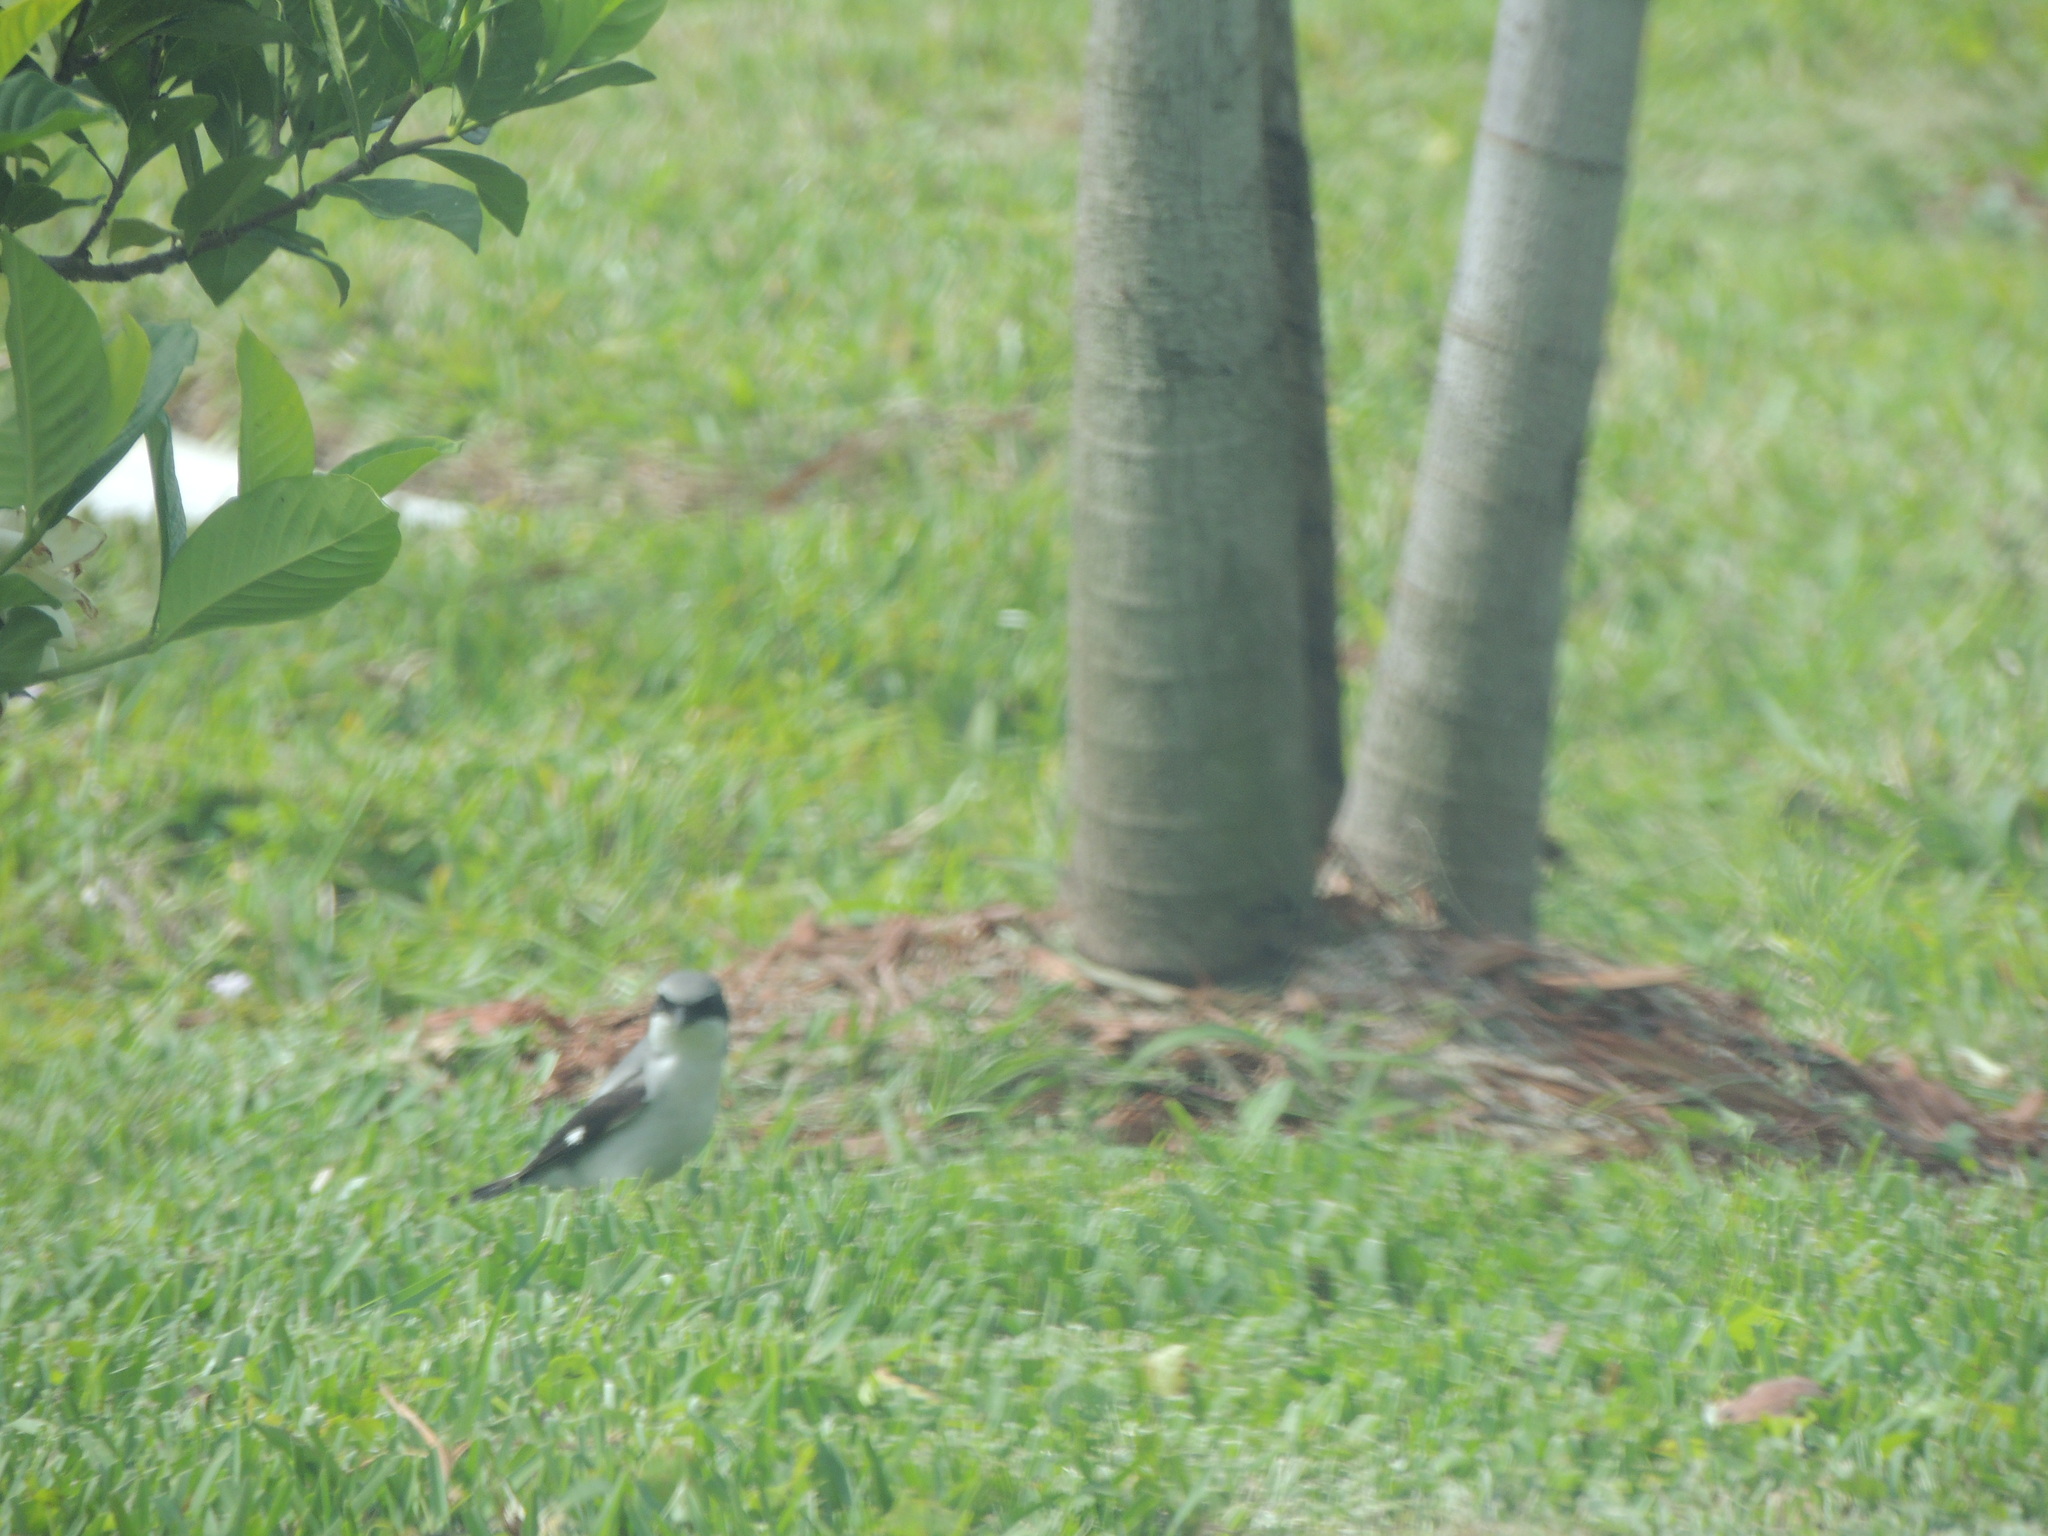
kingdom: Animalia
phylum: Chordata
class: Aves
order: Passeriformes
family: Laniidae
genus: Lanius
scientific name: Lanius ludovicianus
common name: Loggerhead shrike
